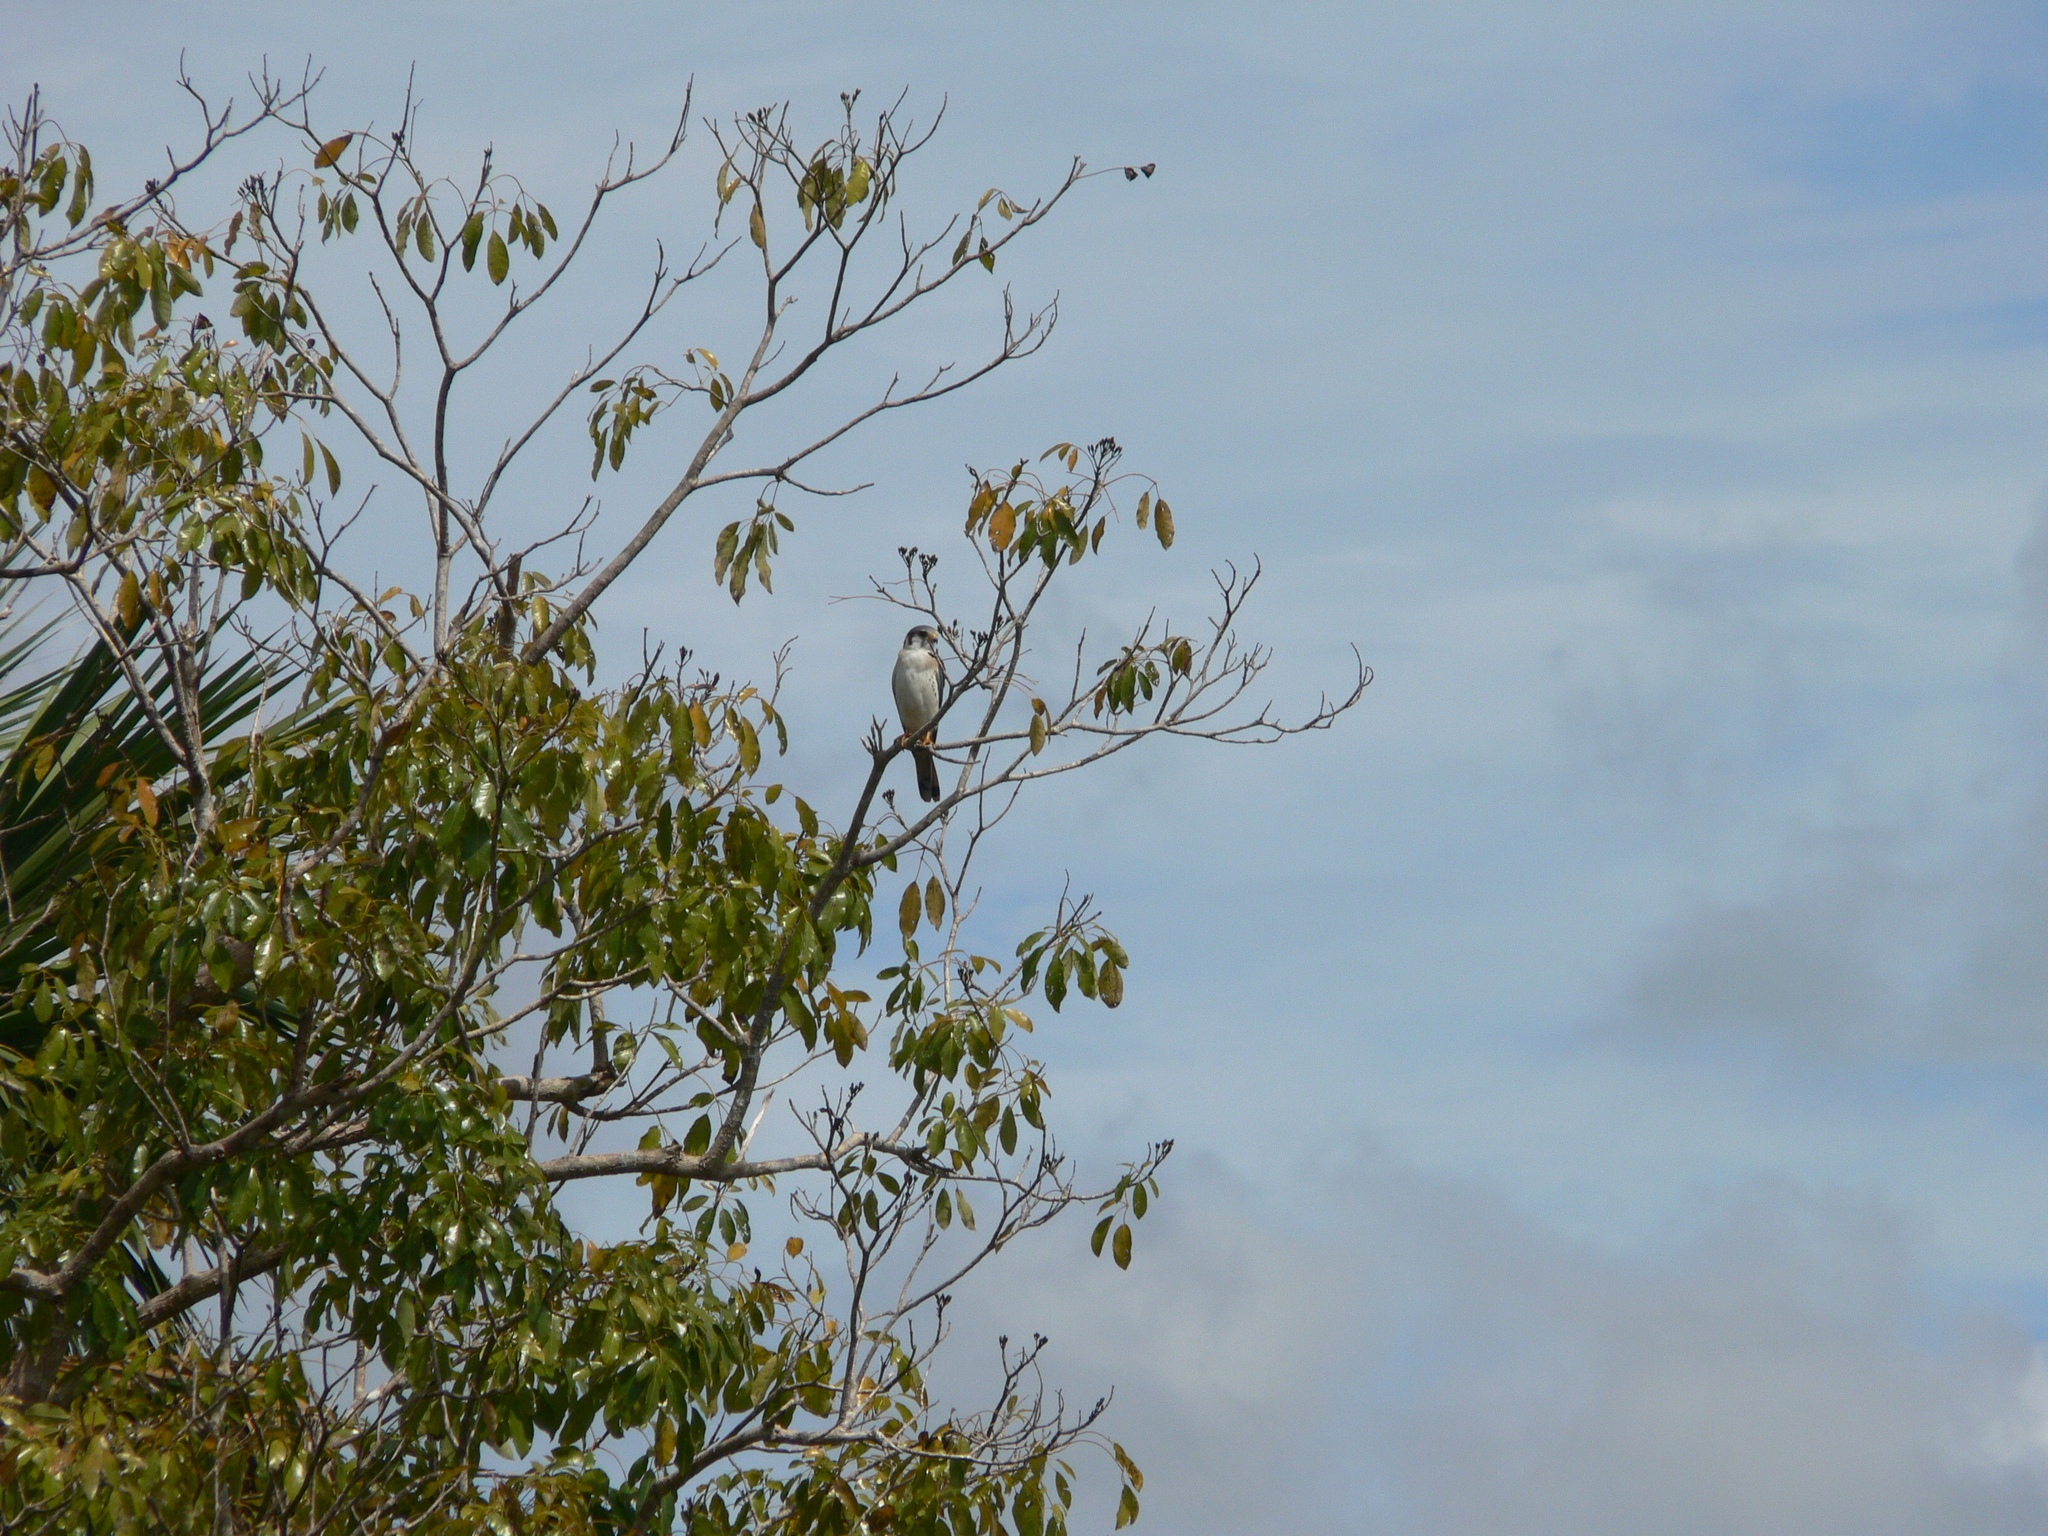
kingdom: Animalia
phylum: Chordata
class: Aves
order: Falconiformes
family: Falconidae
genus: Falco
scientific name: Falco sparverius
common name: American kestrel
